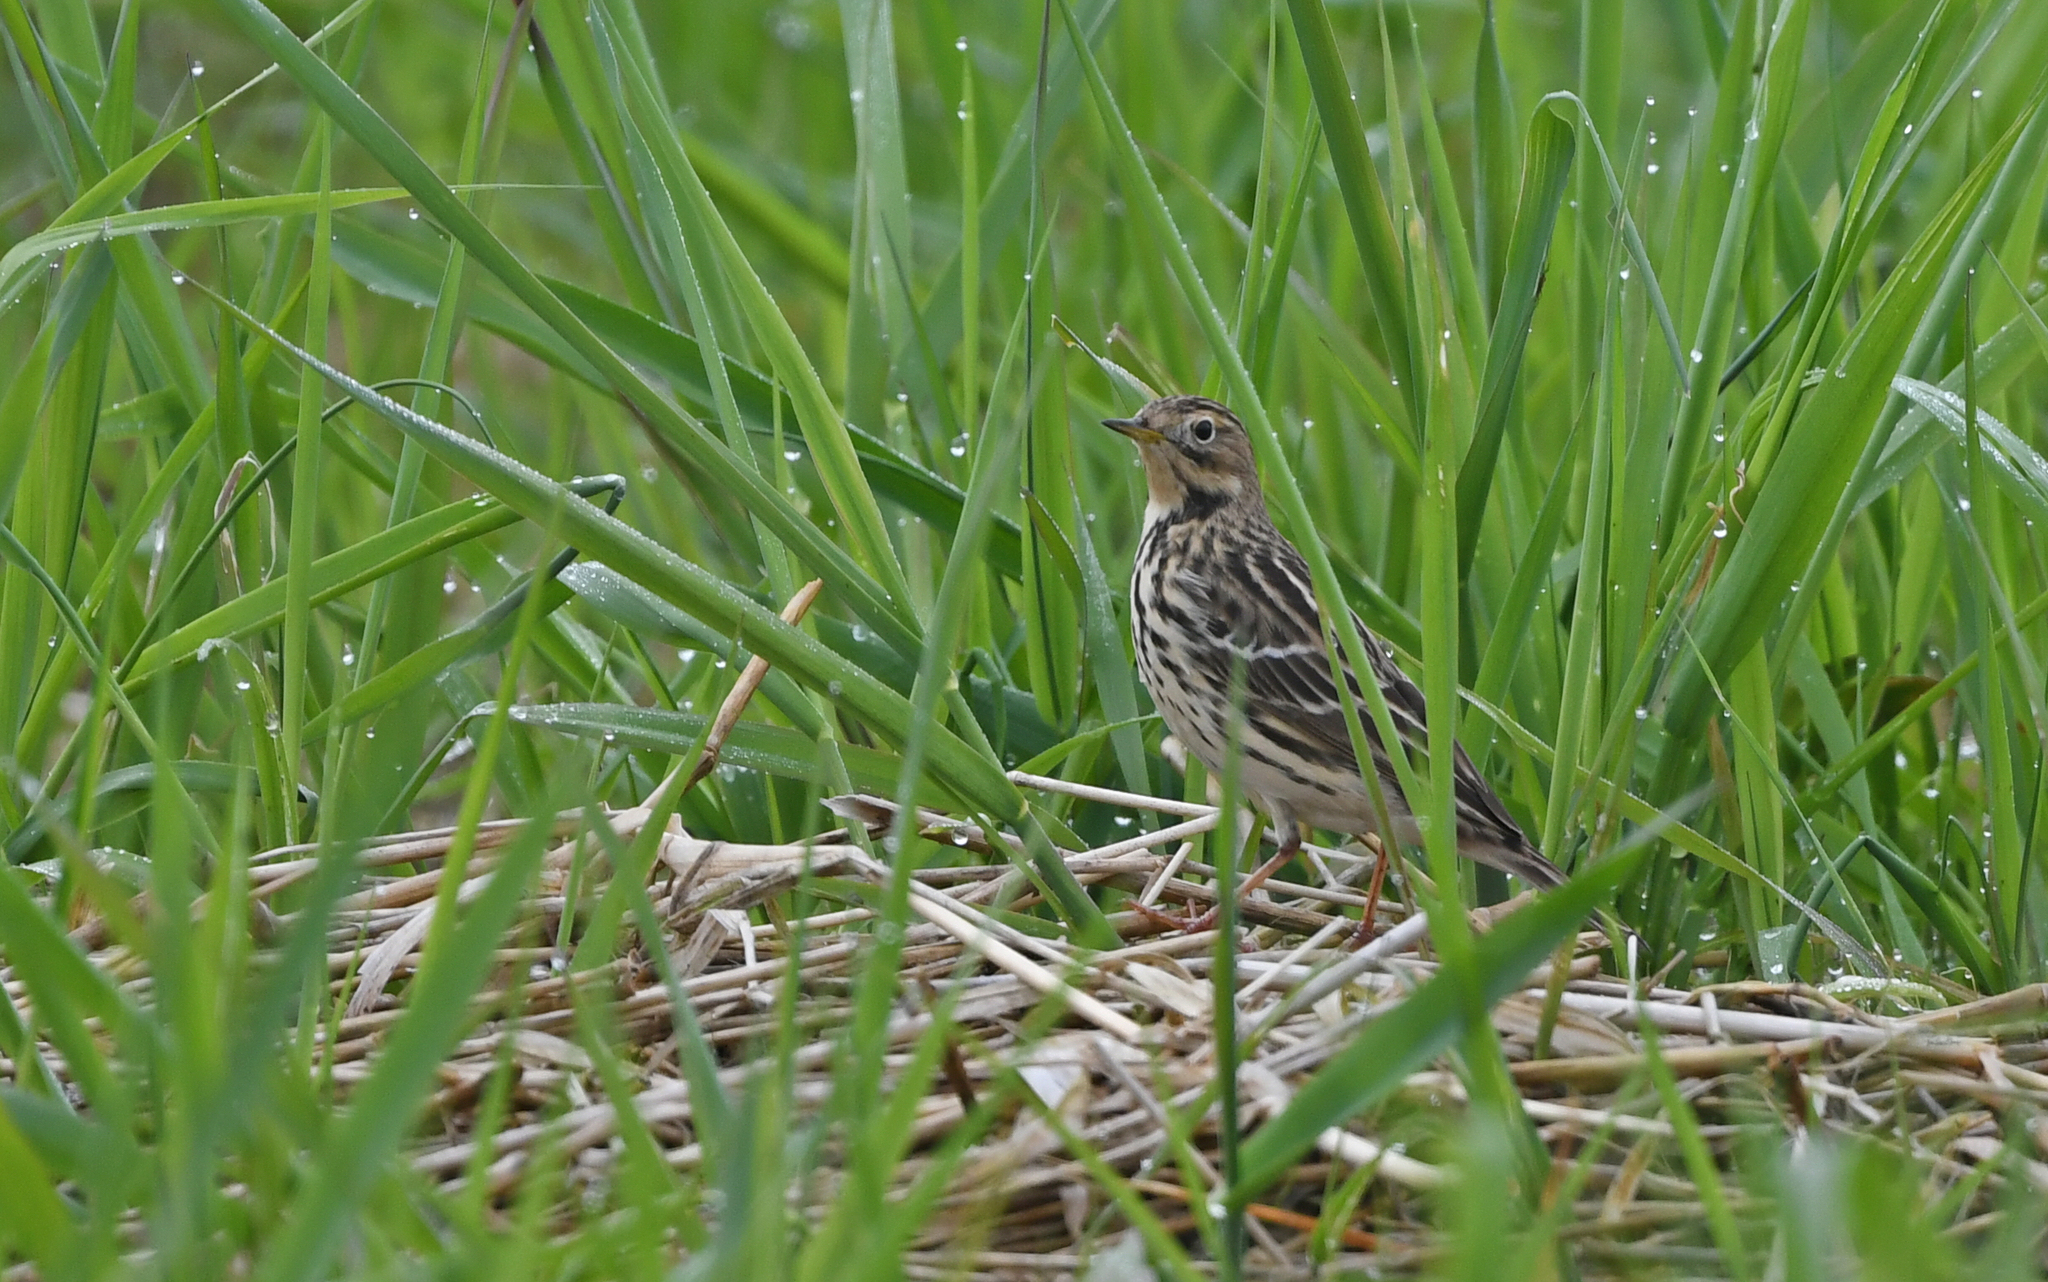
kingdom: Animalia
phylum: Chordata
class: Aves
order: Passeriformes
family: Motacillidae
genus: Anthus
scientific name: Anthus cervinus
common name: Red-throated pipit
